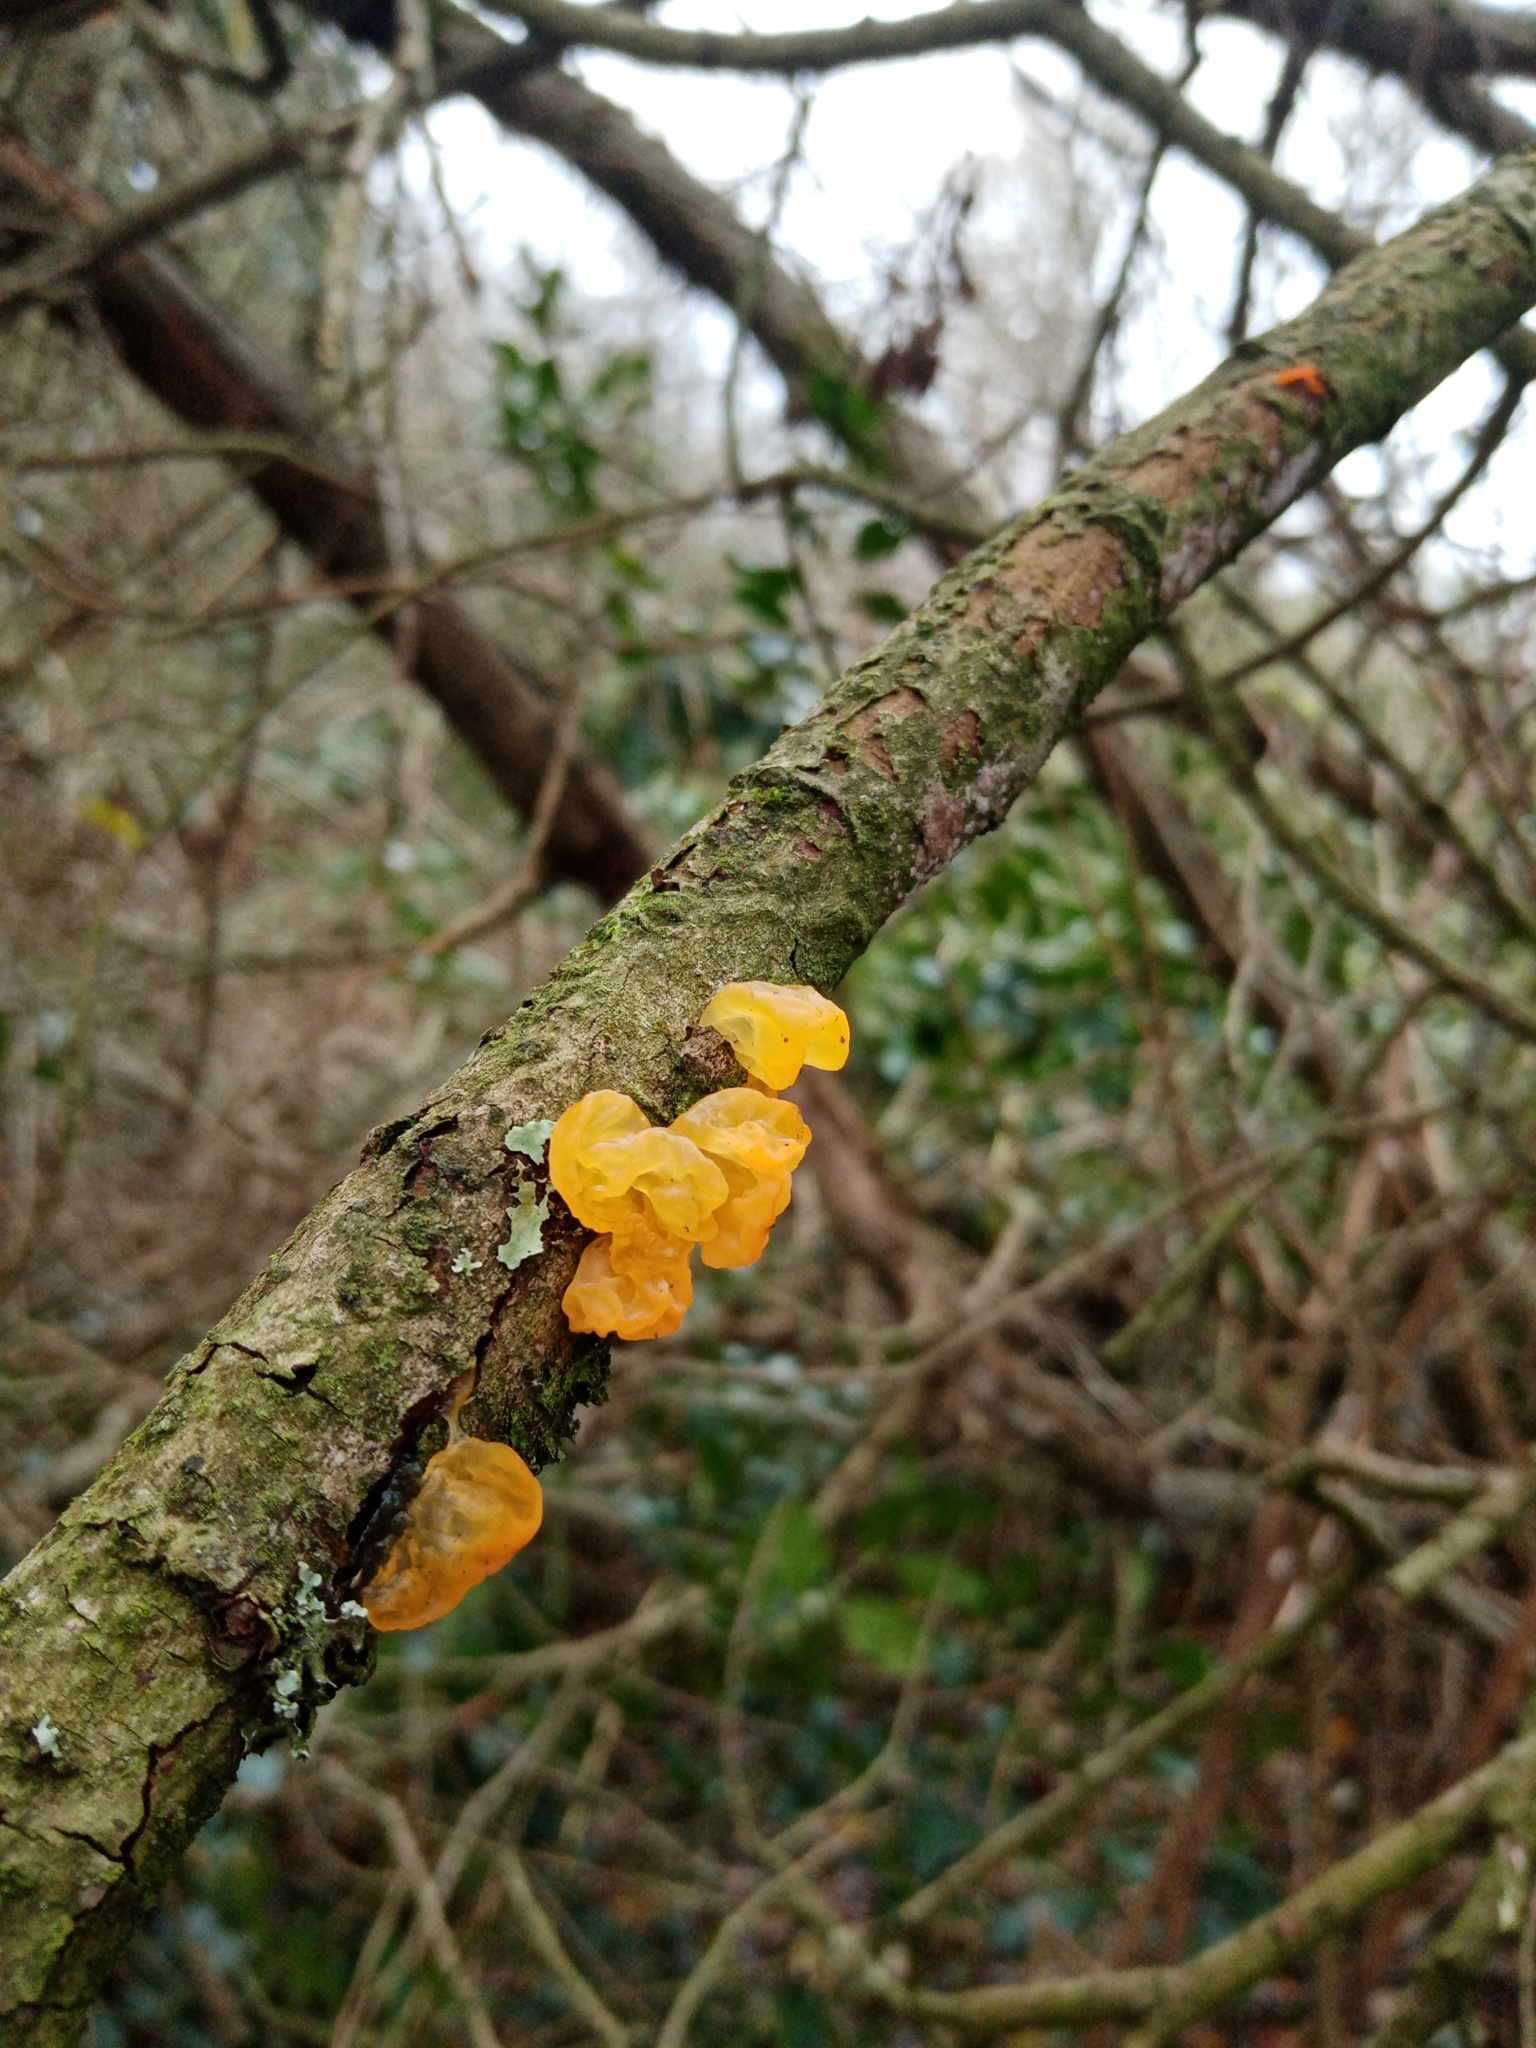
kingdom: Fungi
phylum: Basidiomycota
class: Tremellomycetes
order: Tremellales
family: Tremellaceae
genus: Tremella
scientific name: Tremella mesenterica
